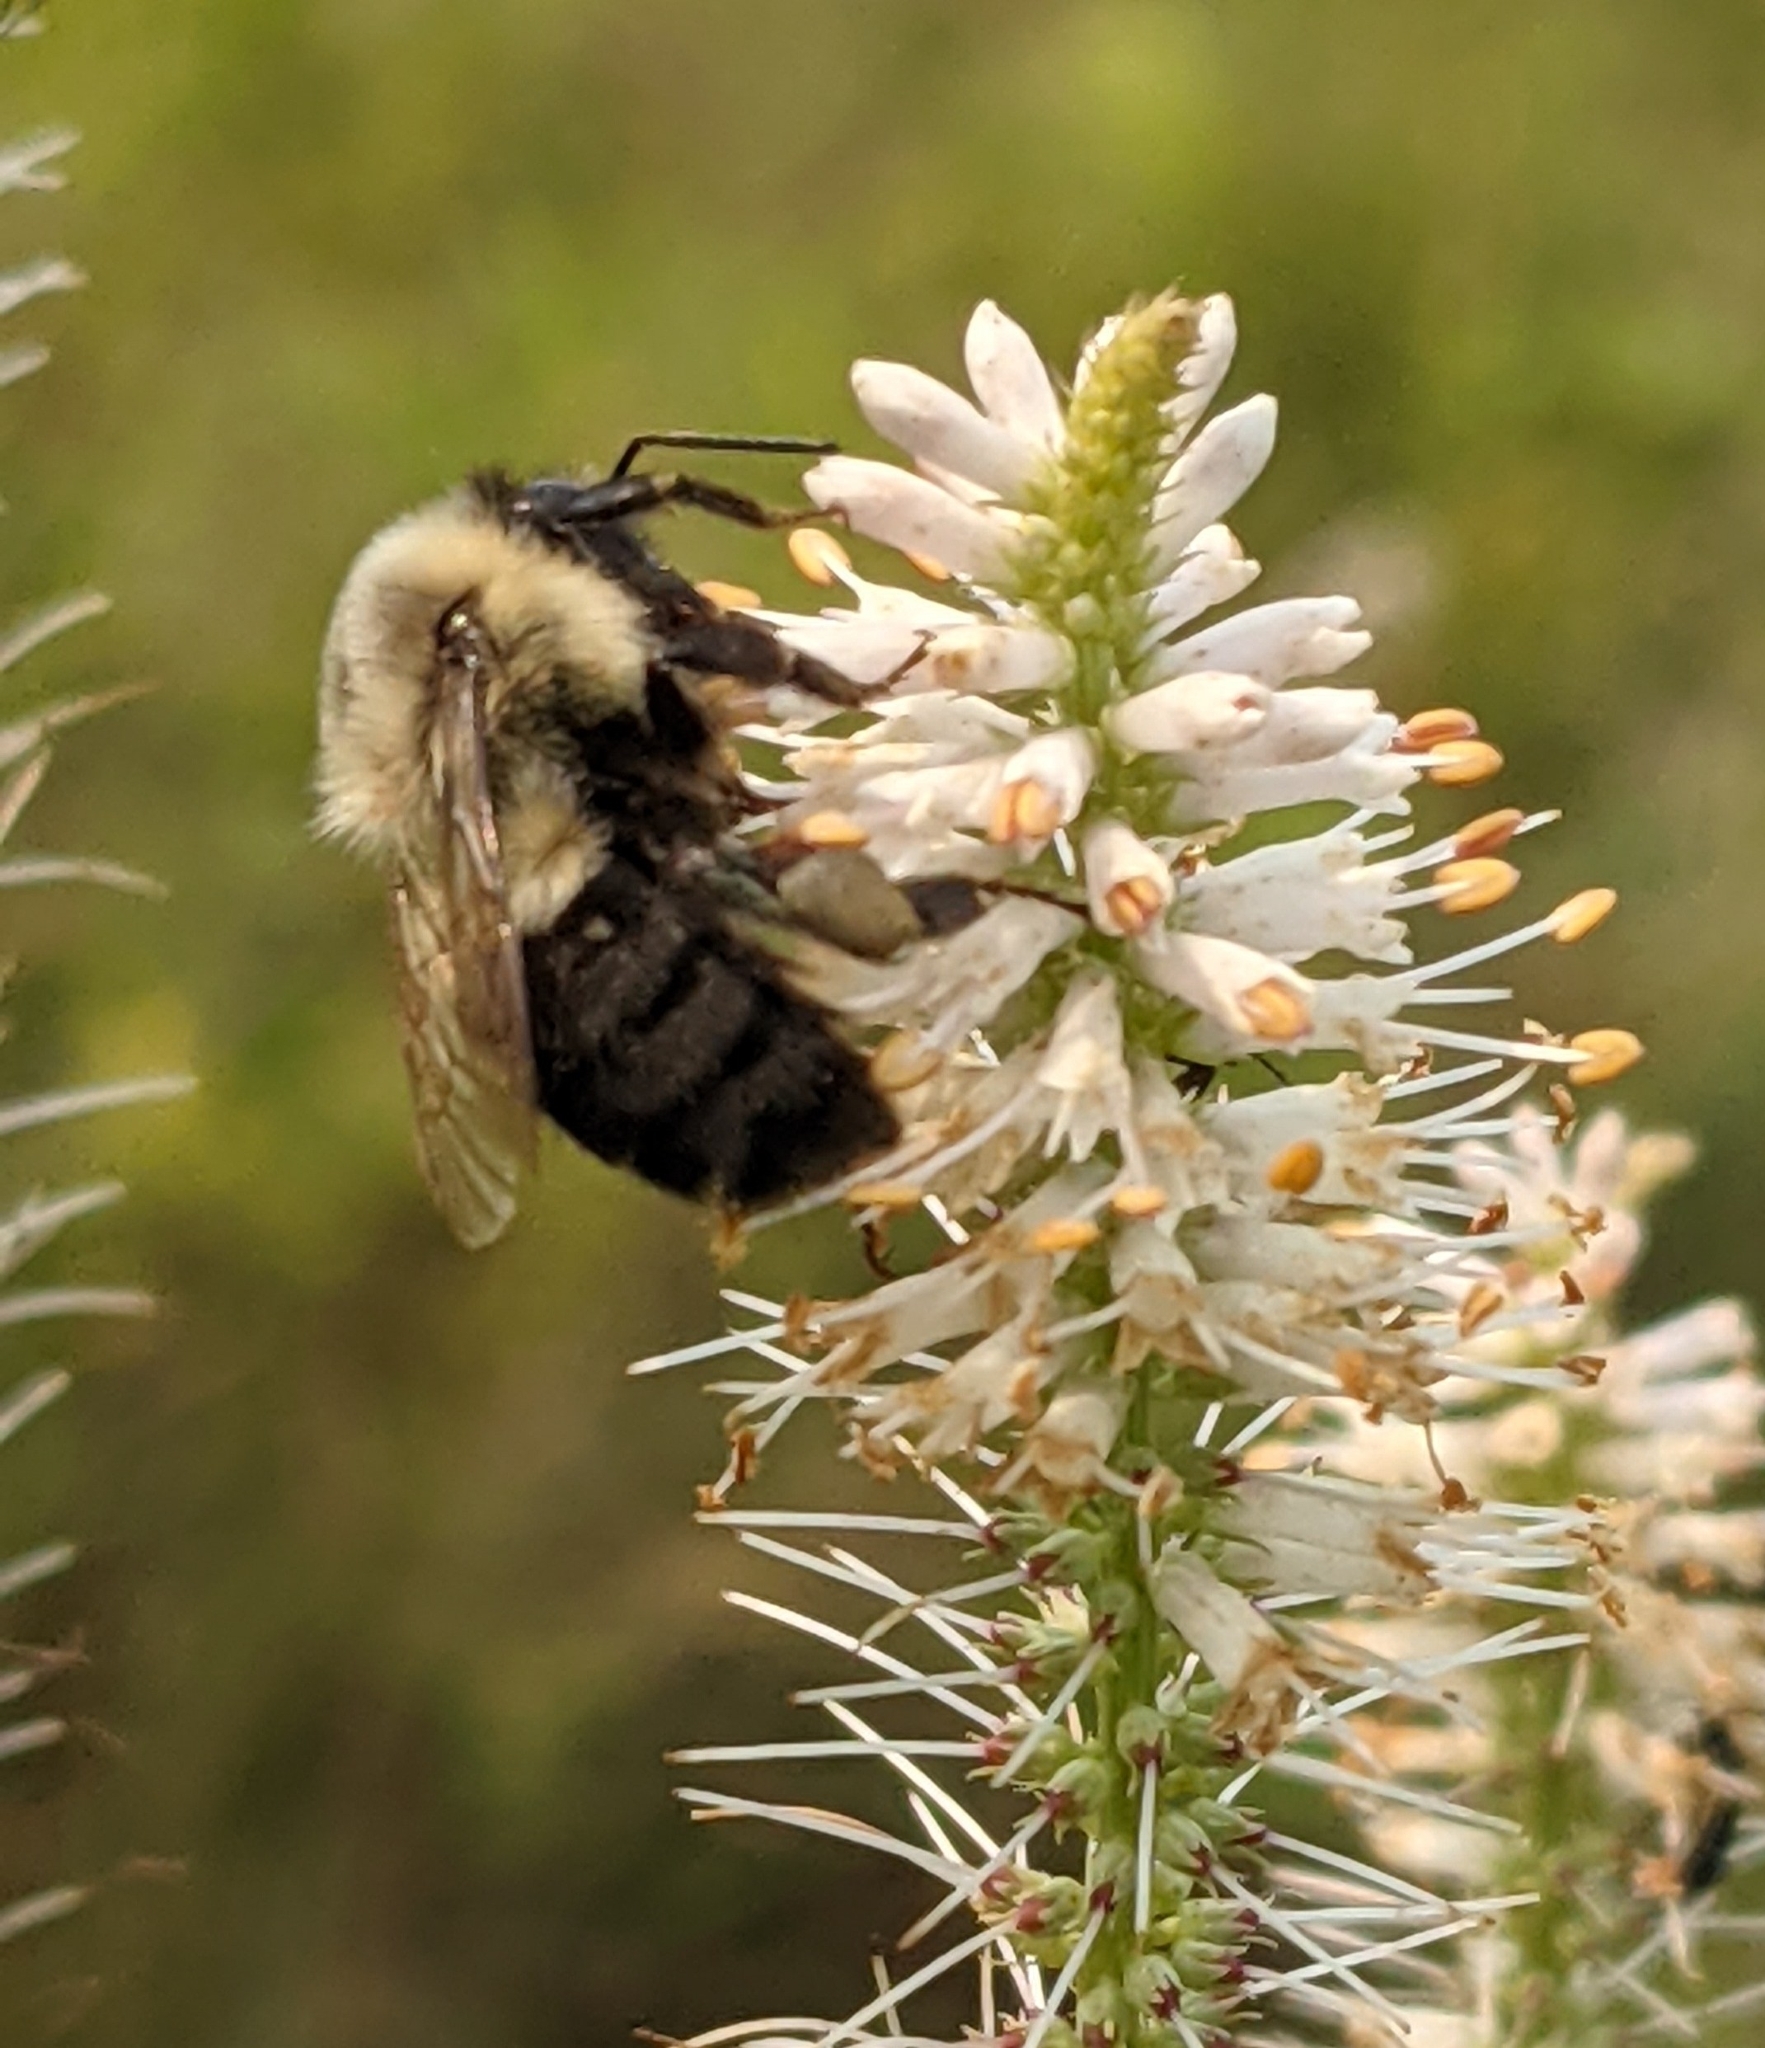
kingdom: Animalia
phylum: Arthropoda
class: Insecta
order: Hymenoptera
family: Apidae
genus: Bombus
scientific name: Bombus impatiens
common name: Common eastern bumble bee
